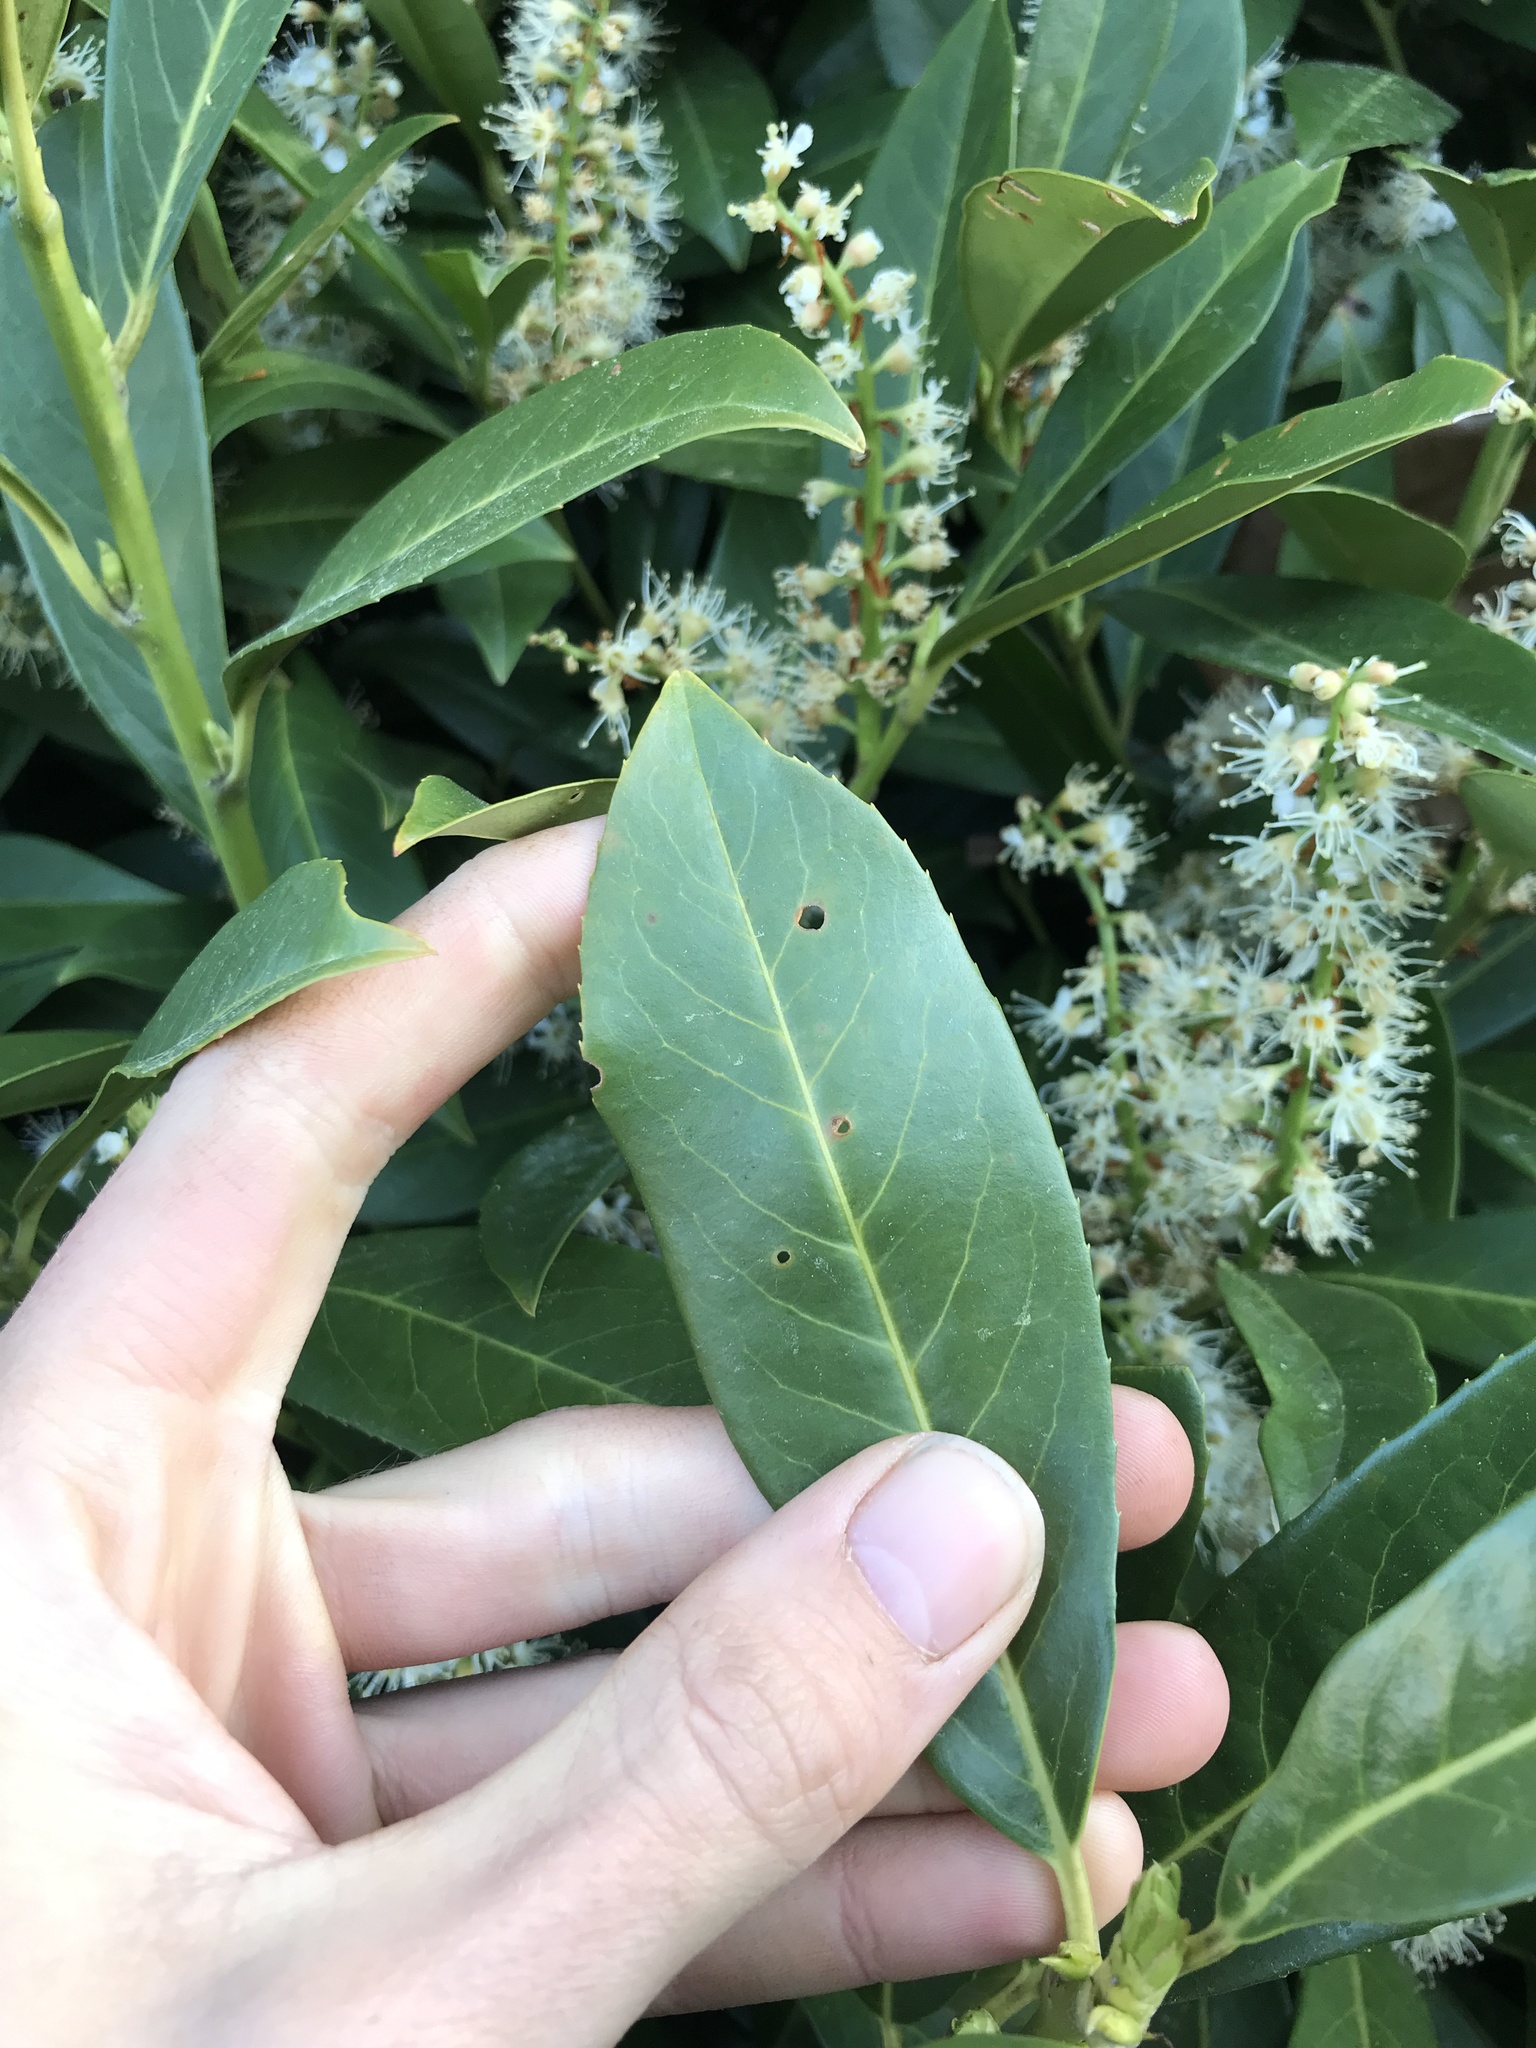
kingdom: Fungi
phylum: Ascomycota
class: Dothideomycetes
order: Mycosphaerellales
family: Mycosphaerellaceae
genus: Stigmina
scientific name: Stigmina carpophila
